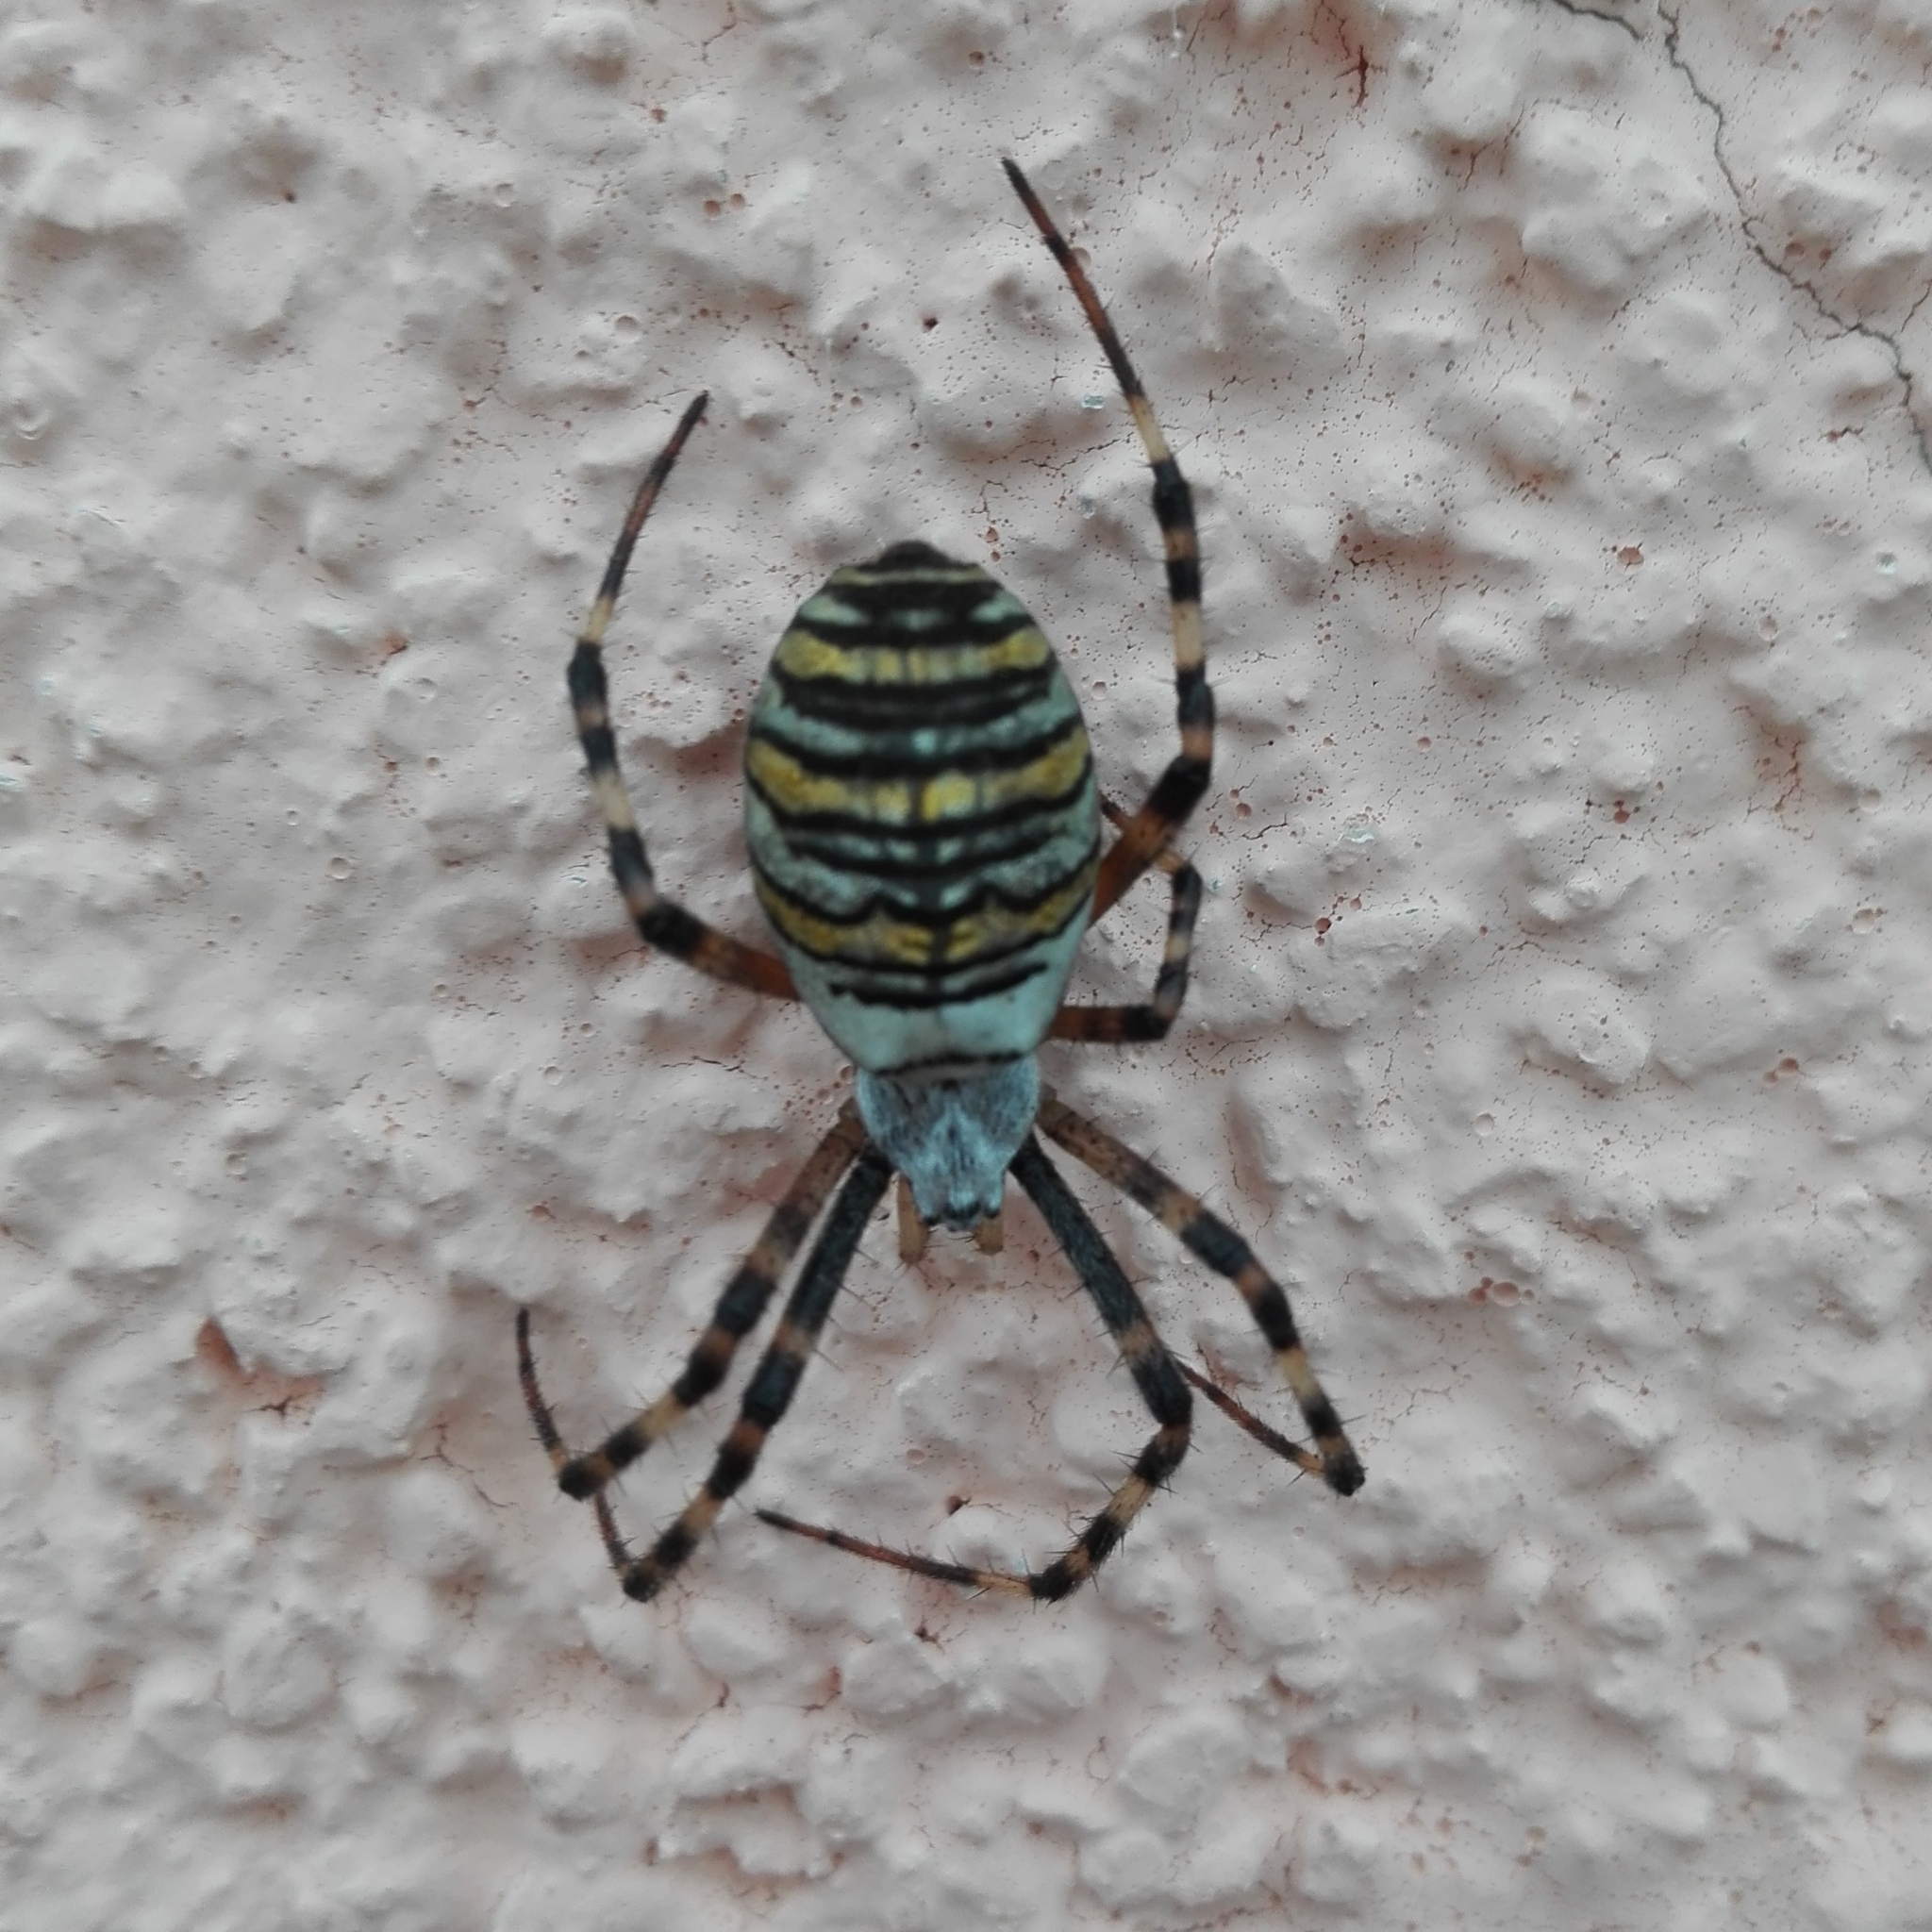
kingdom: Animalia
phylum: Arthropoda
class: Arachnida
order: Araneae
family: Araneidae
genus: Argiope
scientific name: Argiope bruennichi
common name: Wasp spider
